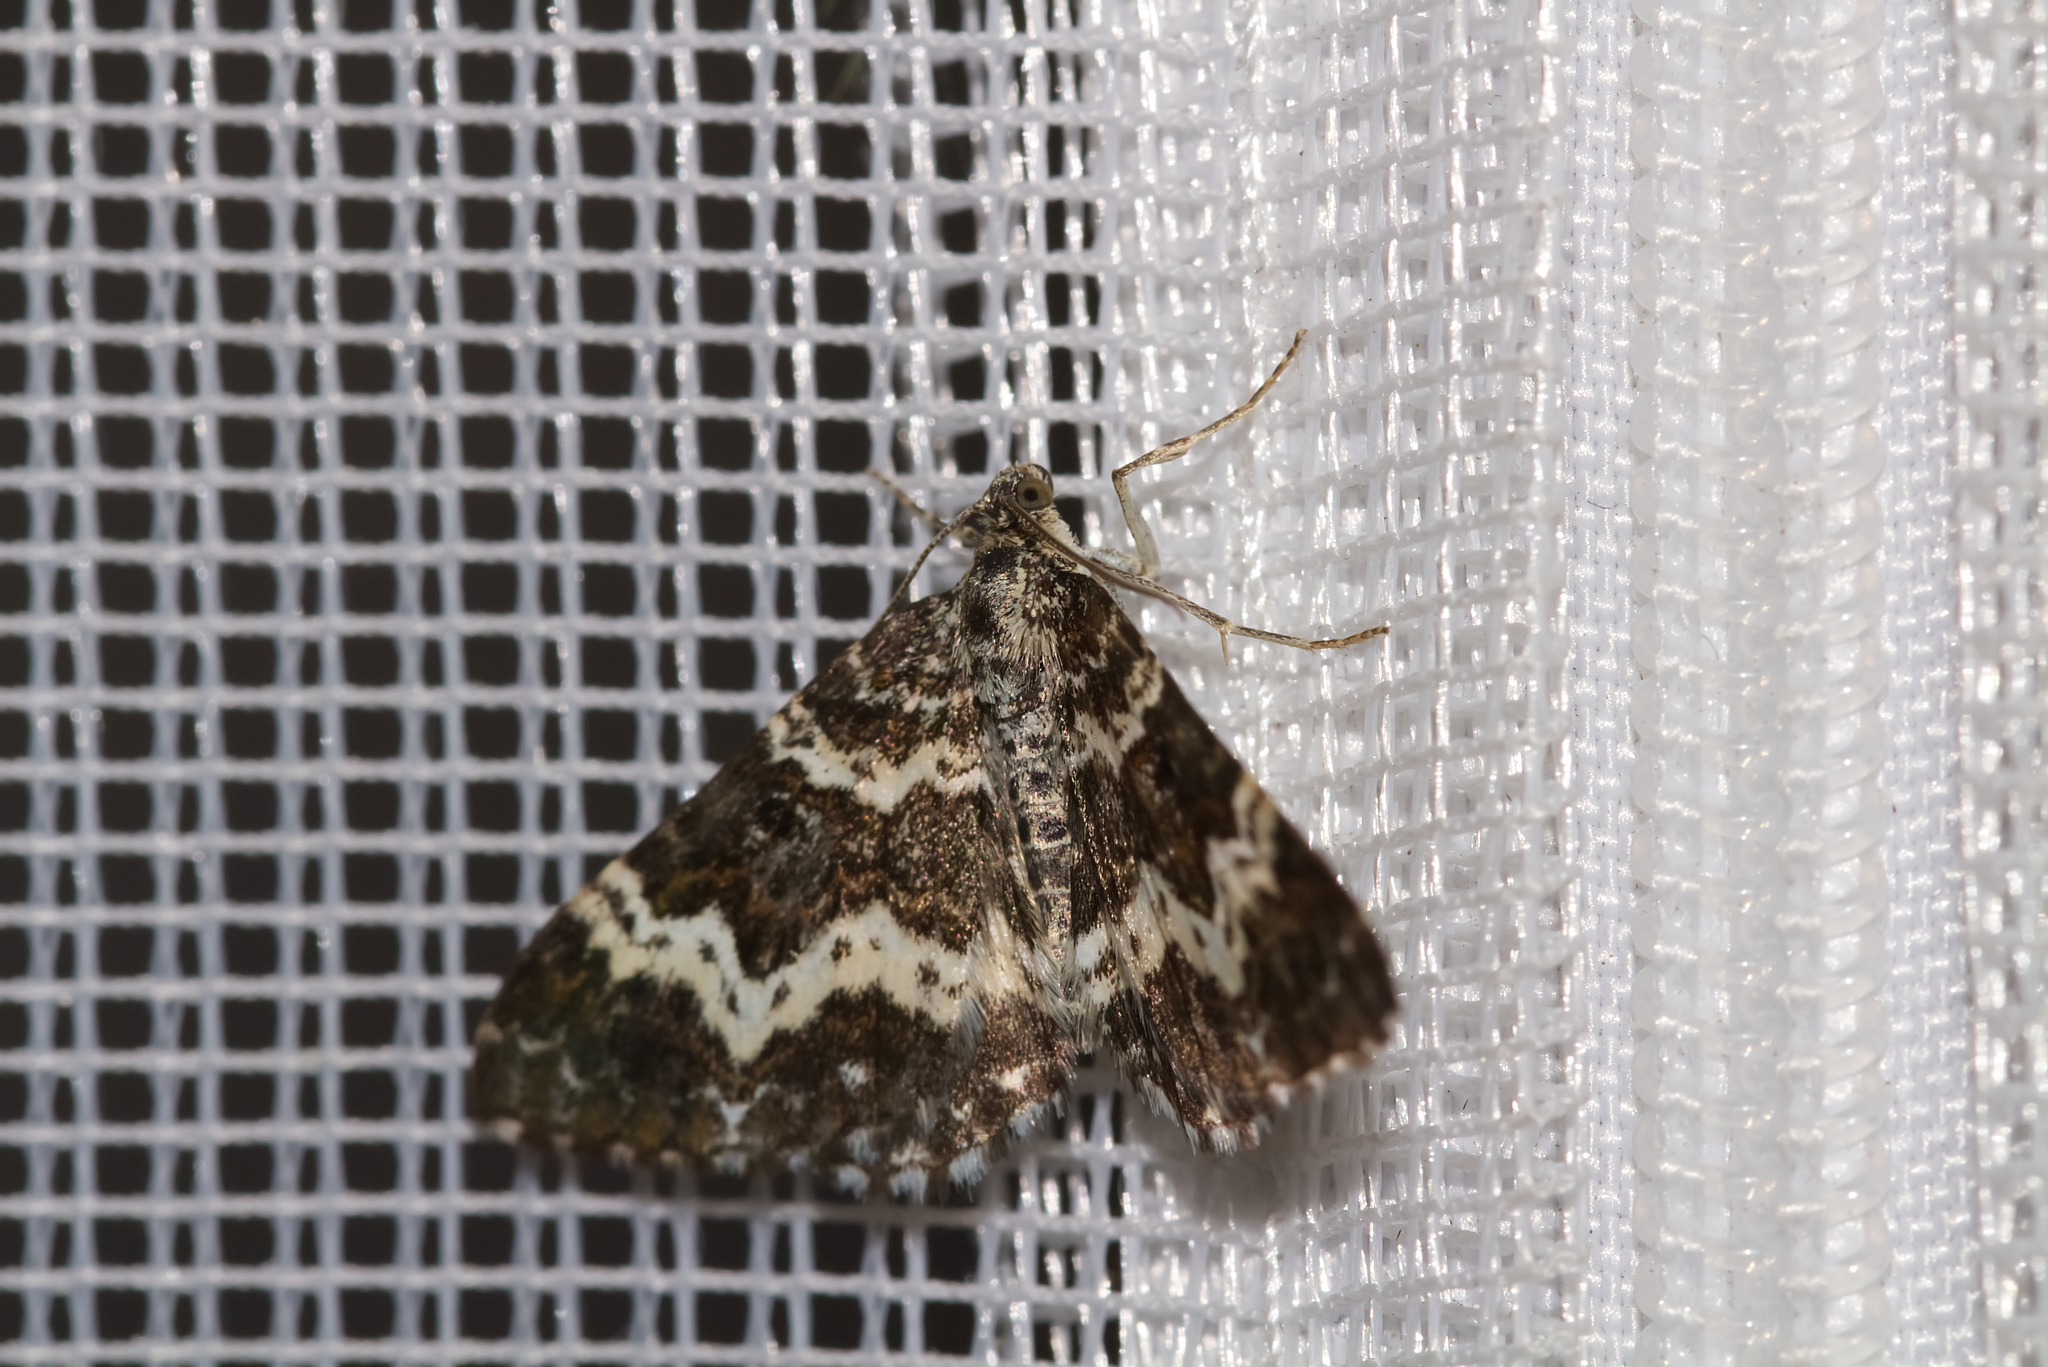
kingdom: Animalia
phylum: Arthropoda
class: Insecta
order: Lepidoptera
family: Geometridae
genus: Epirrhoe
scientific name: Epirrhoe tristata
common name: Small argent & sable
